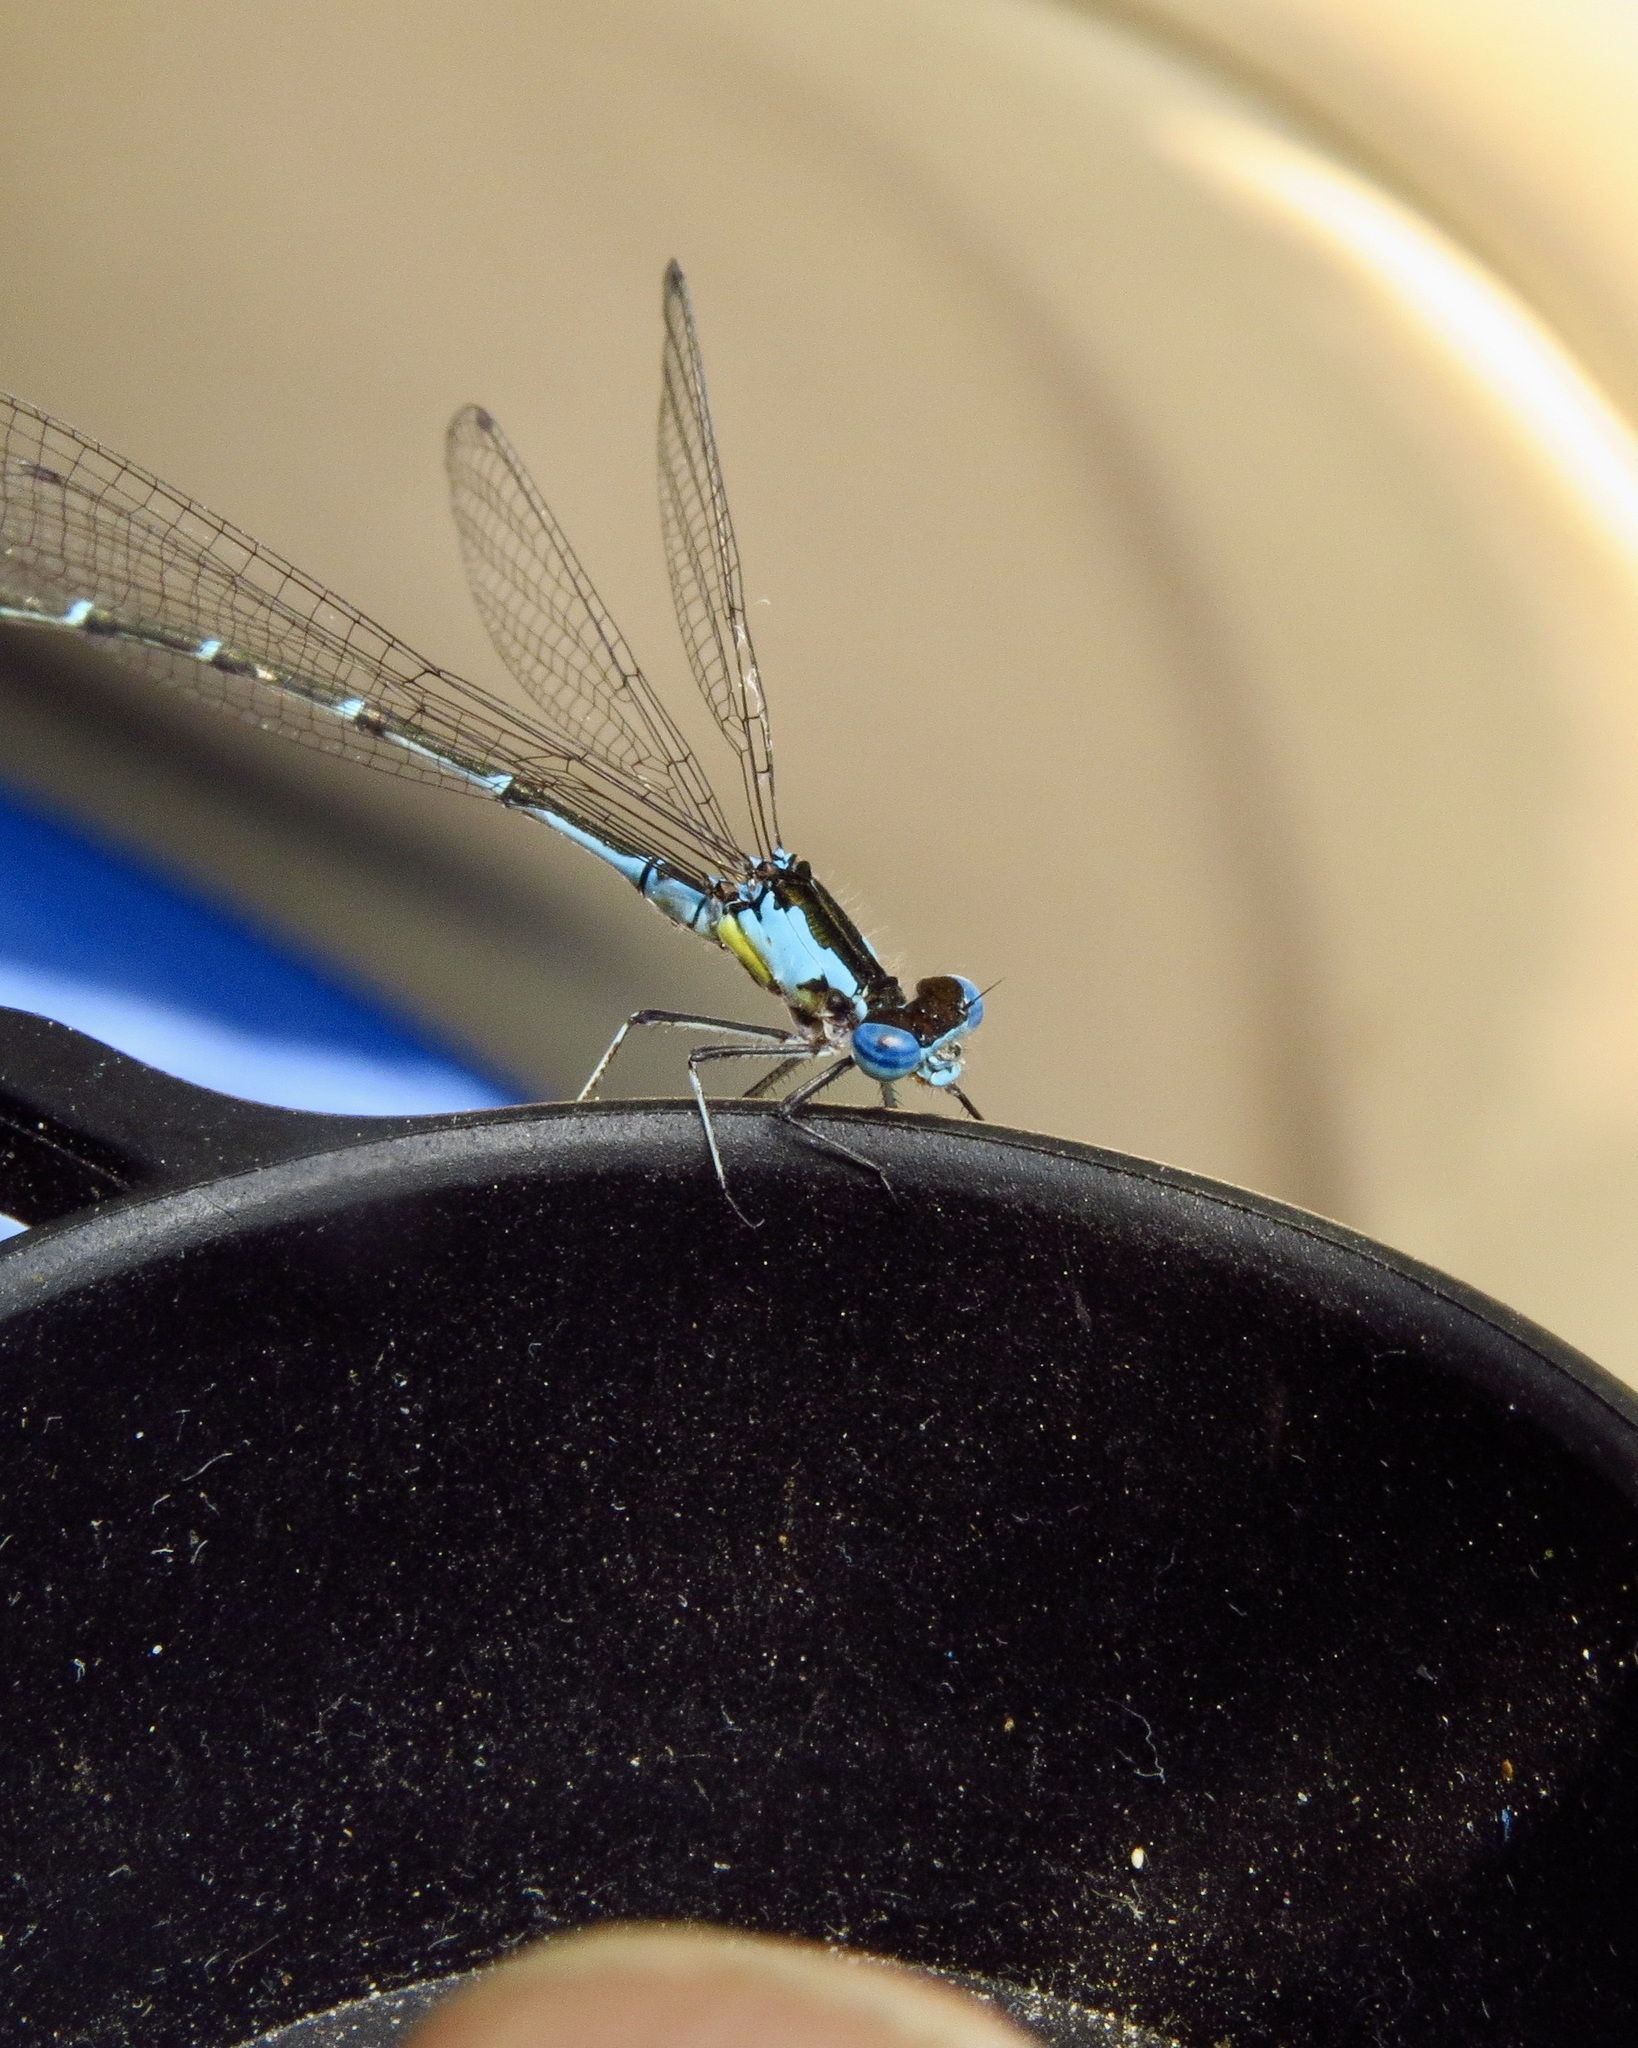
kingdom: Animalia
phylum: Arthropoda
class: Insecta
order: Odonata
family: Coenagrionidae
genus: Chromagrion
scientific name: Chromagrion conditum
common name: Aurora damsel
